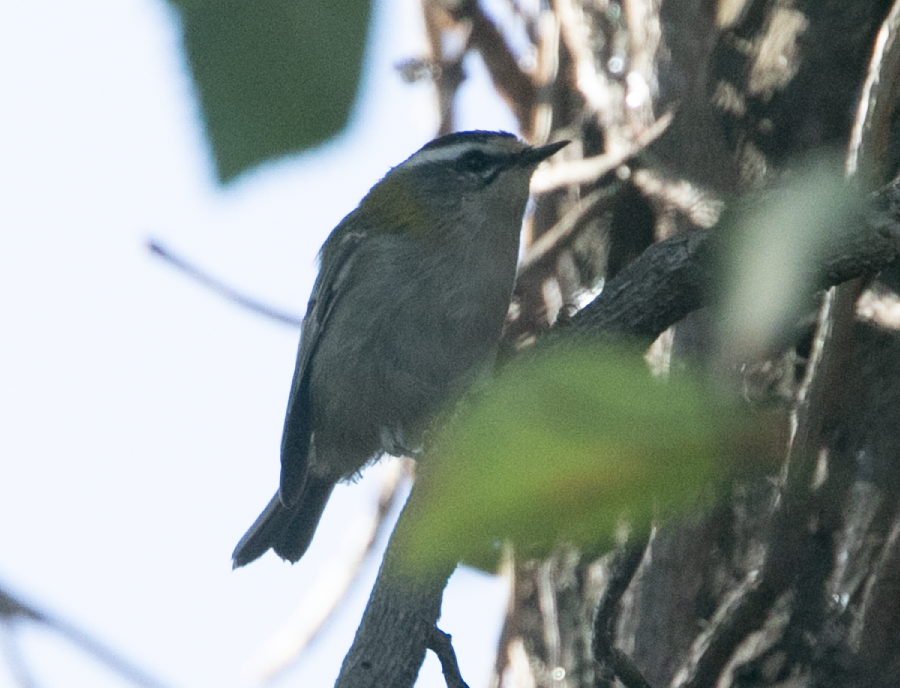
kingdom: Animalia
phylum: Chordata
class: Aves
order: Passeriformes
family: Regulidae
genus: Regulus
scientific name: Regulus ignicapilla
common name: Firecrest
